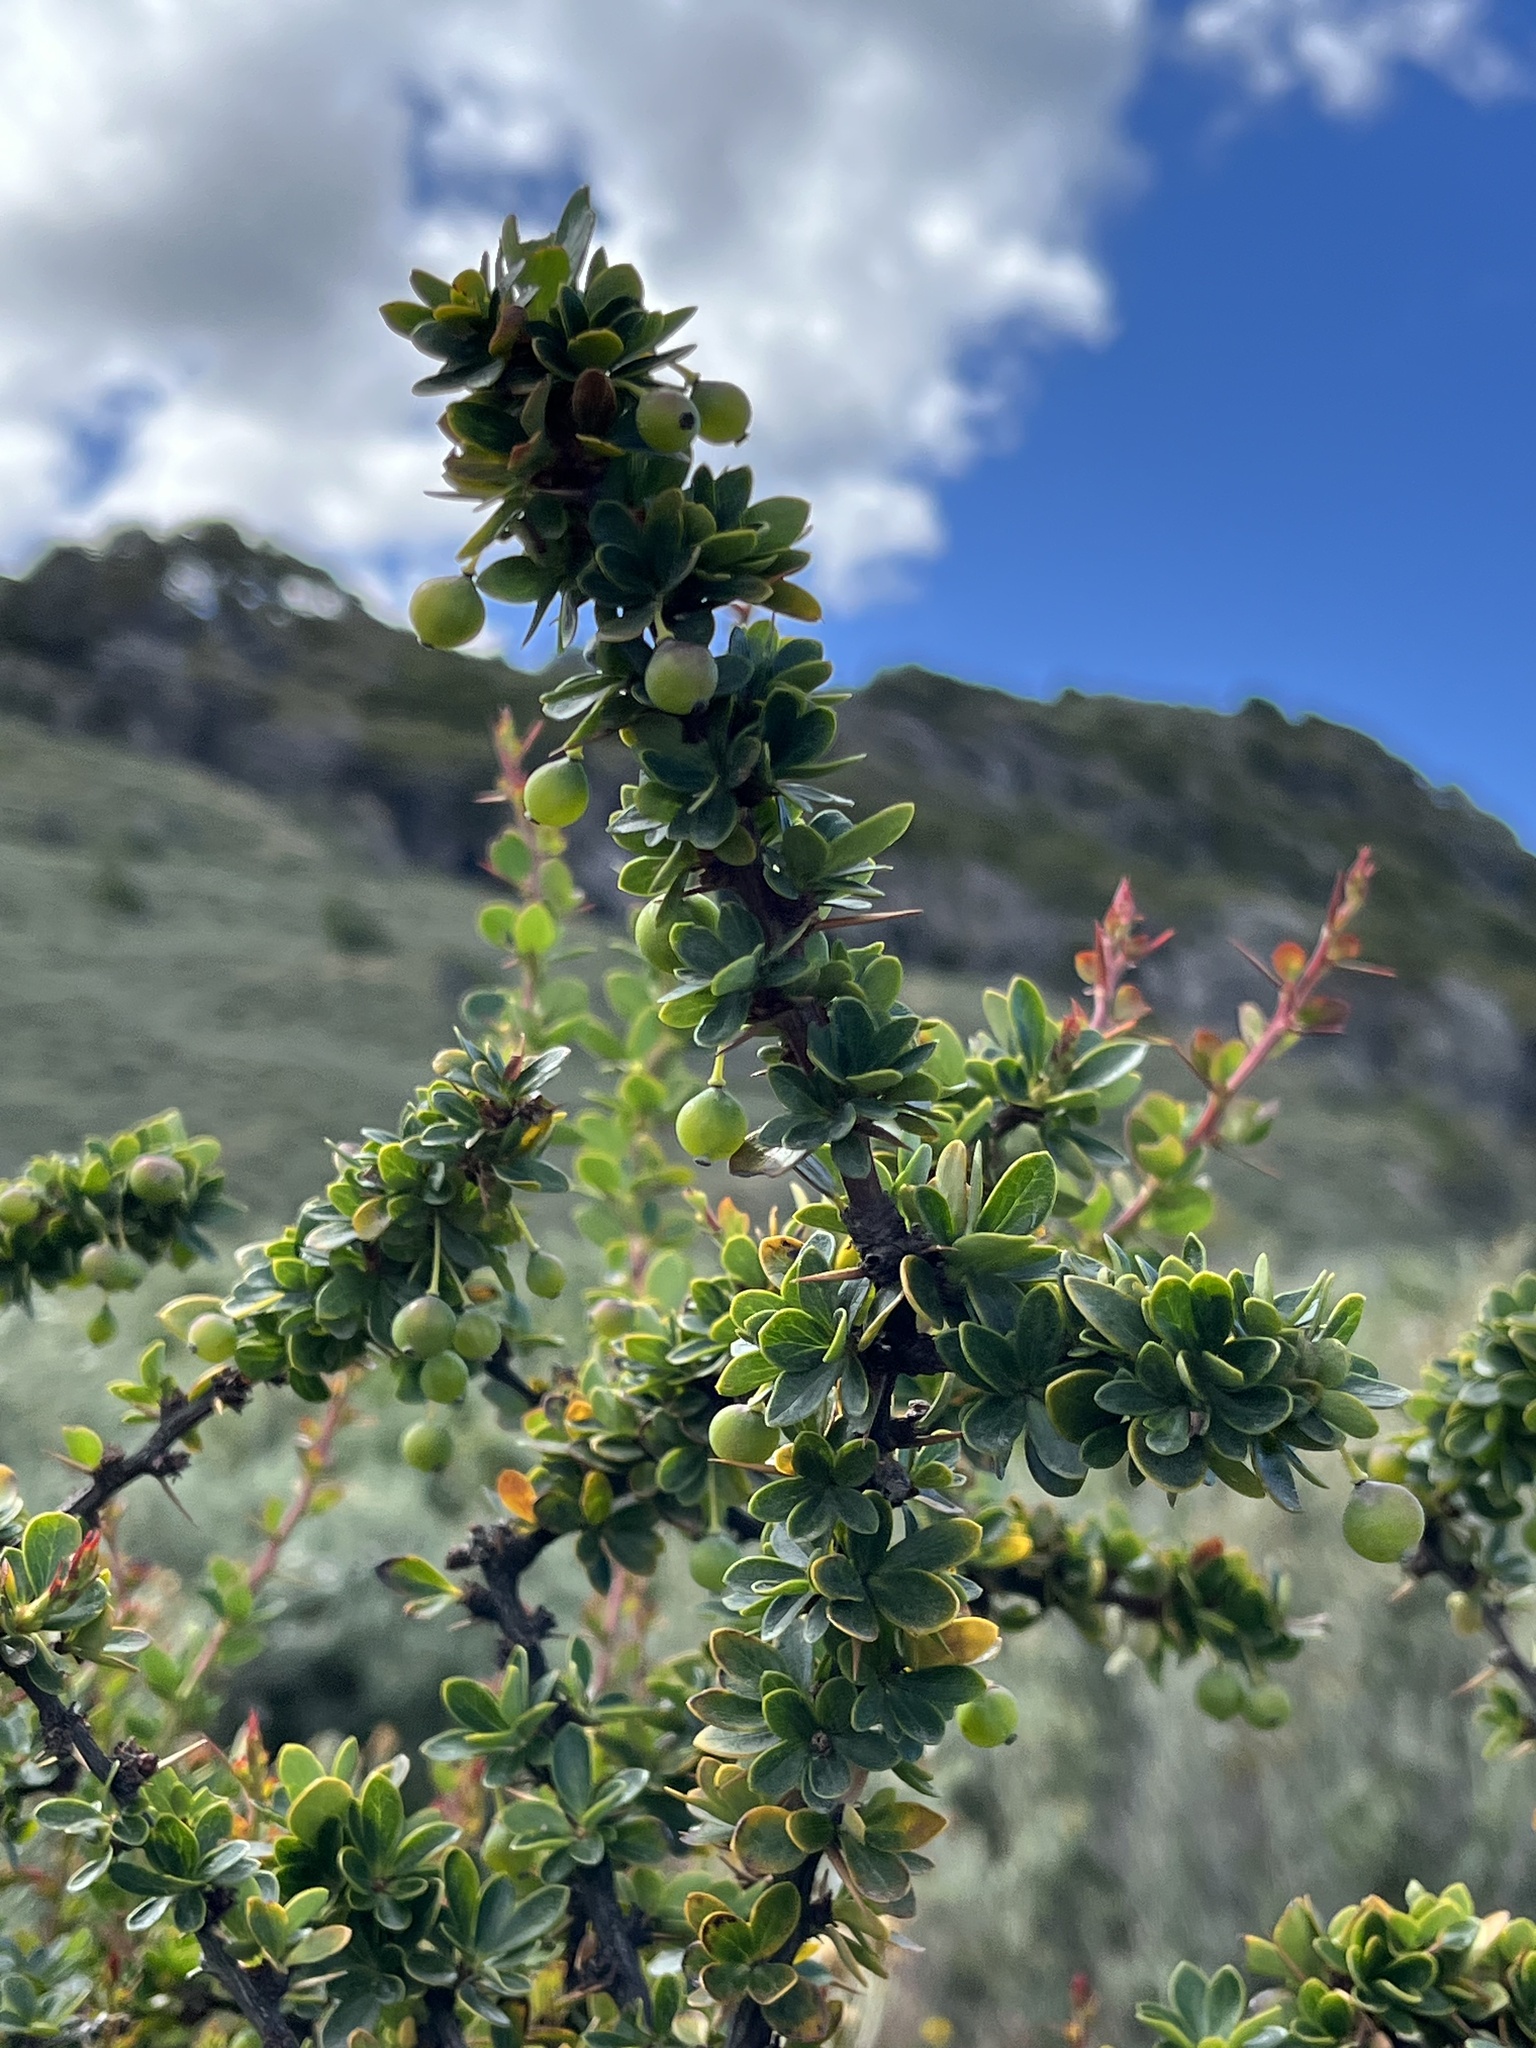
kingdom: Plantae
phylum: Tracheophyta
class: Magnoliopsida
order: Ranunculales
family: Berberidaceae
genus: Berberis
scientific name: Berberis microphylla
